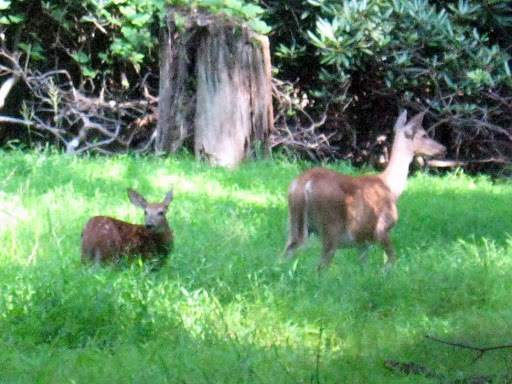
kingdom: Animalia
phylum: Chordata
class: Mammalia
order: Artiodactyla
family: Cervidae
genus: Odocoileus
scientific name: Odocoileus virginianus
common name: White-tailed deer
